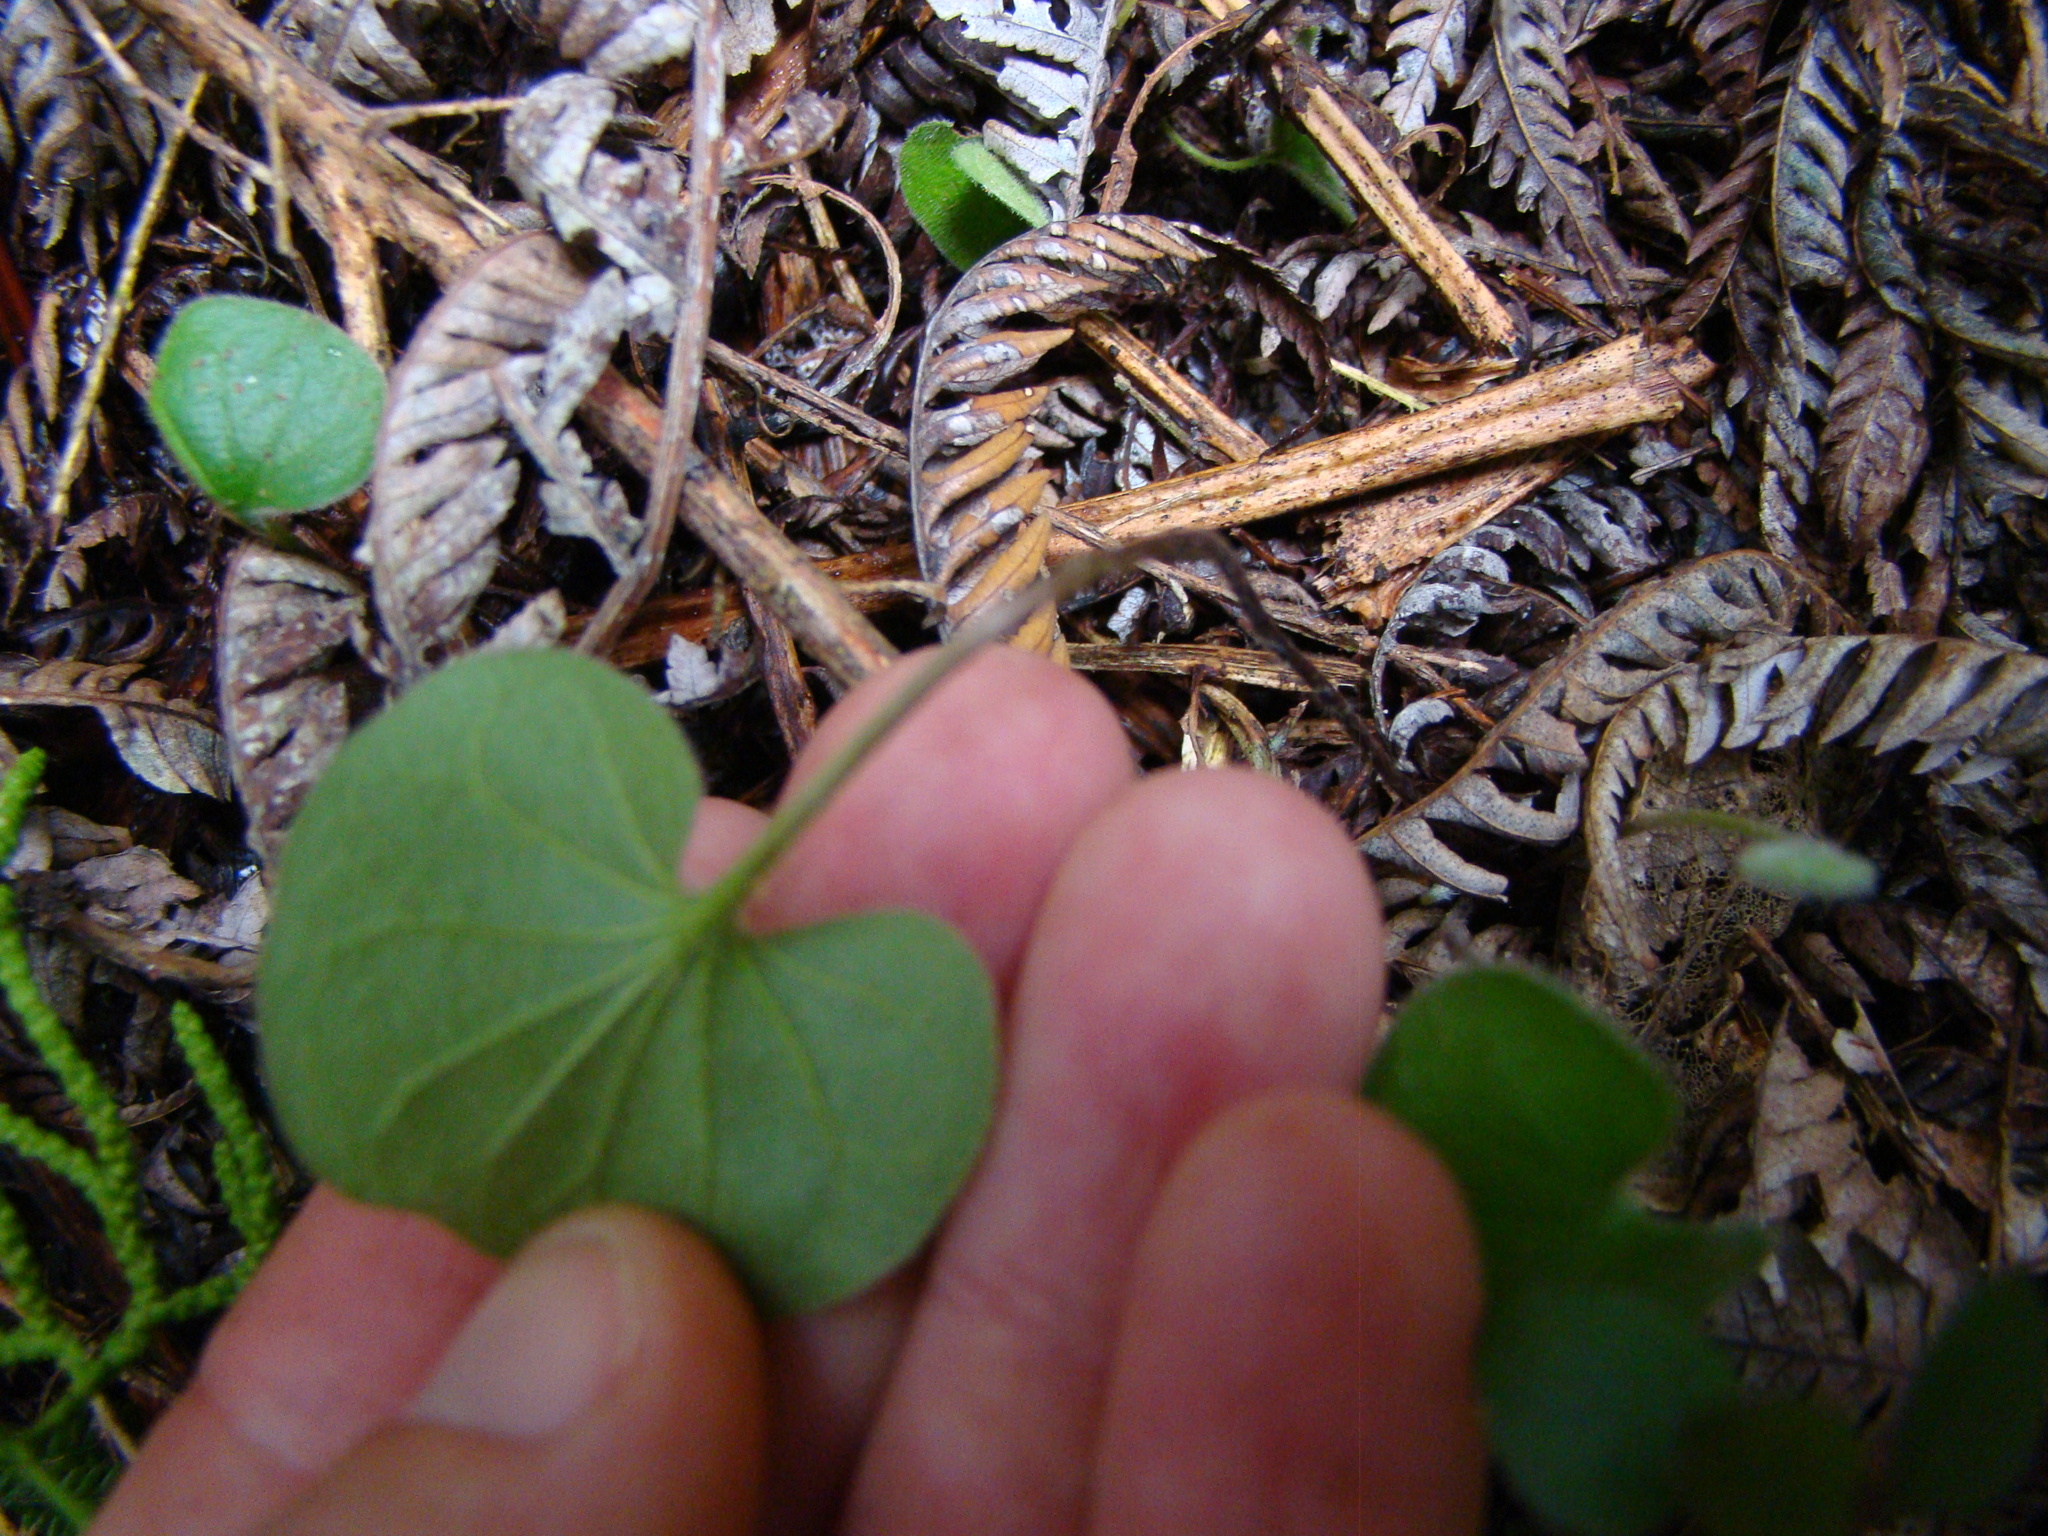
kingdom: Plantae
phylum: Tracheophyta
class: Magnoliopsida
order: Solanales
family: Convolvulaceae
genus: Dichondra
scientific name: Dichondra repens
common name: Kidneyweed
